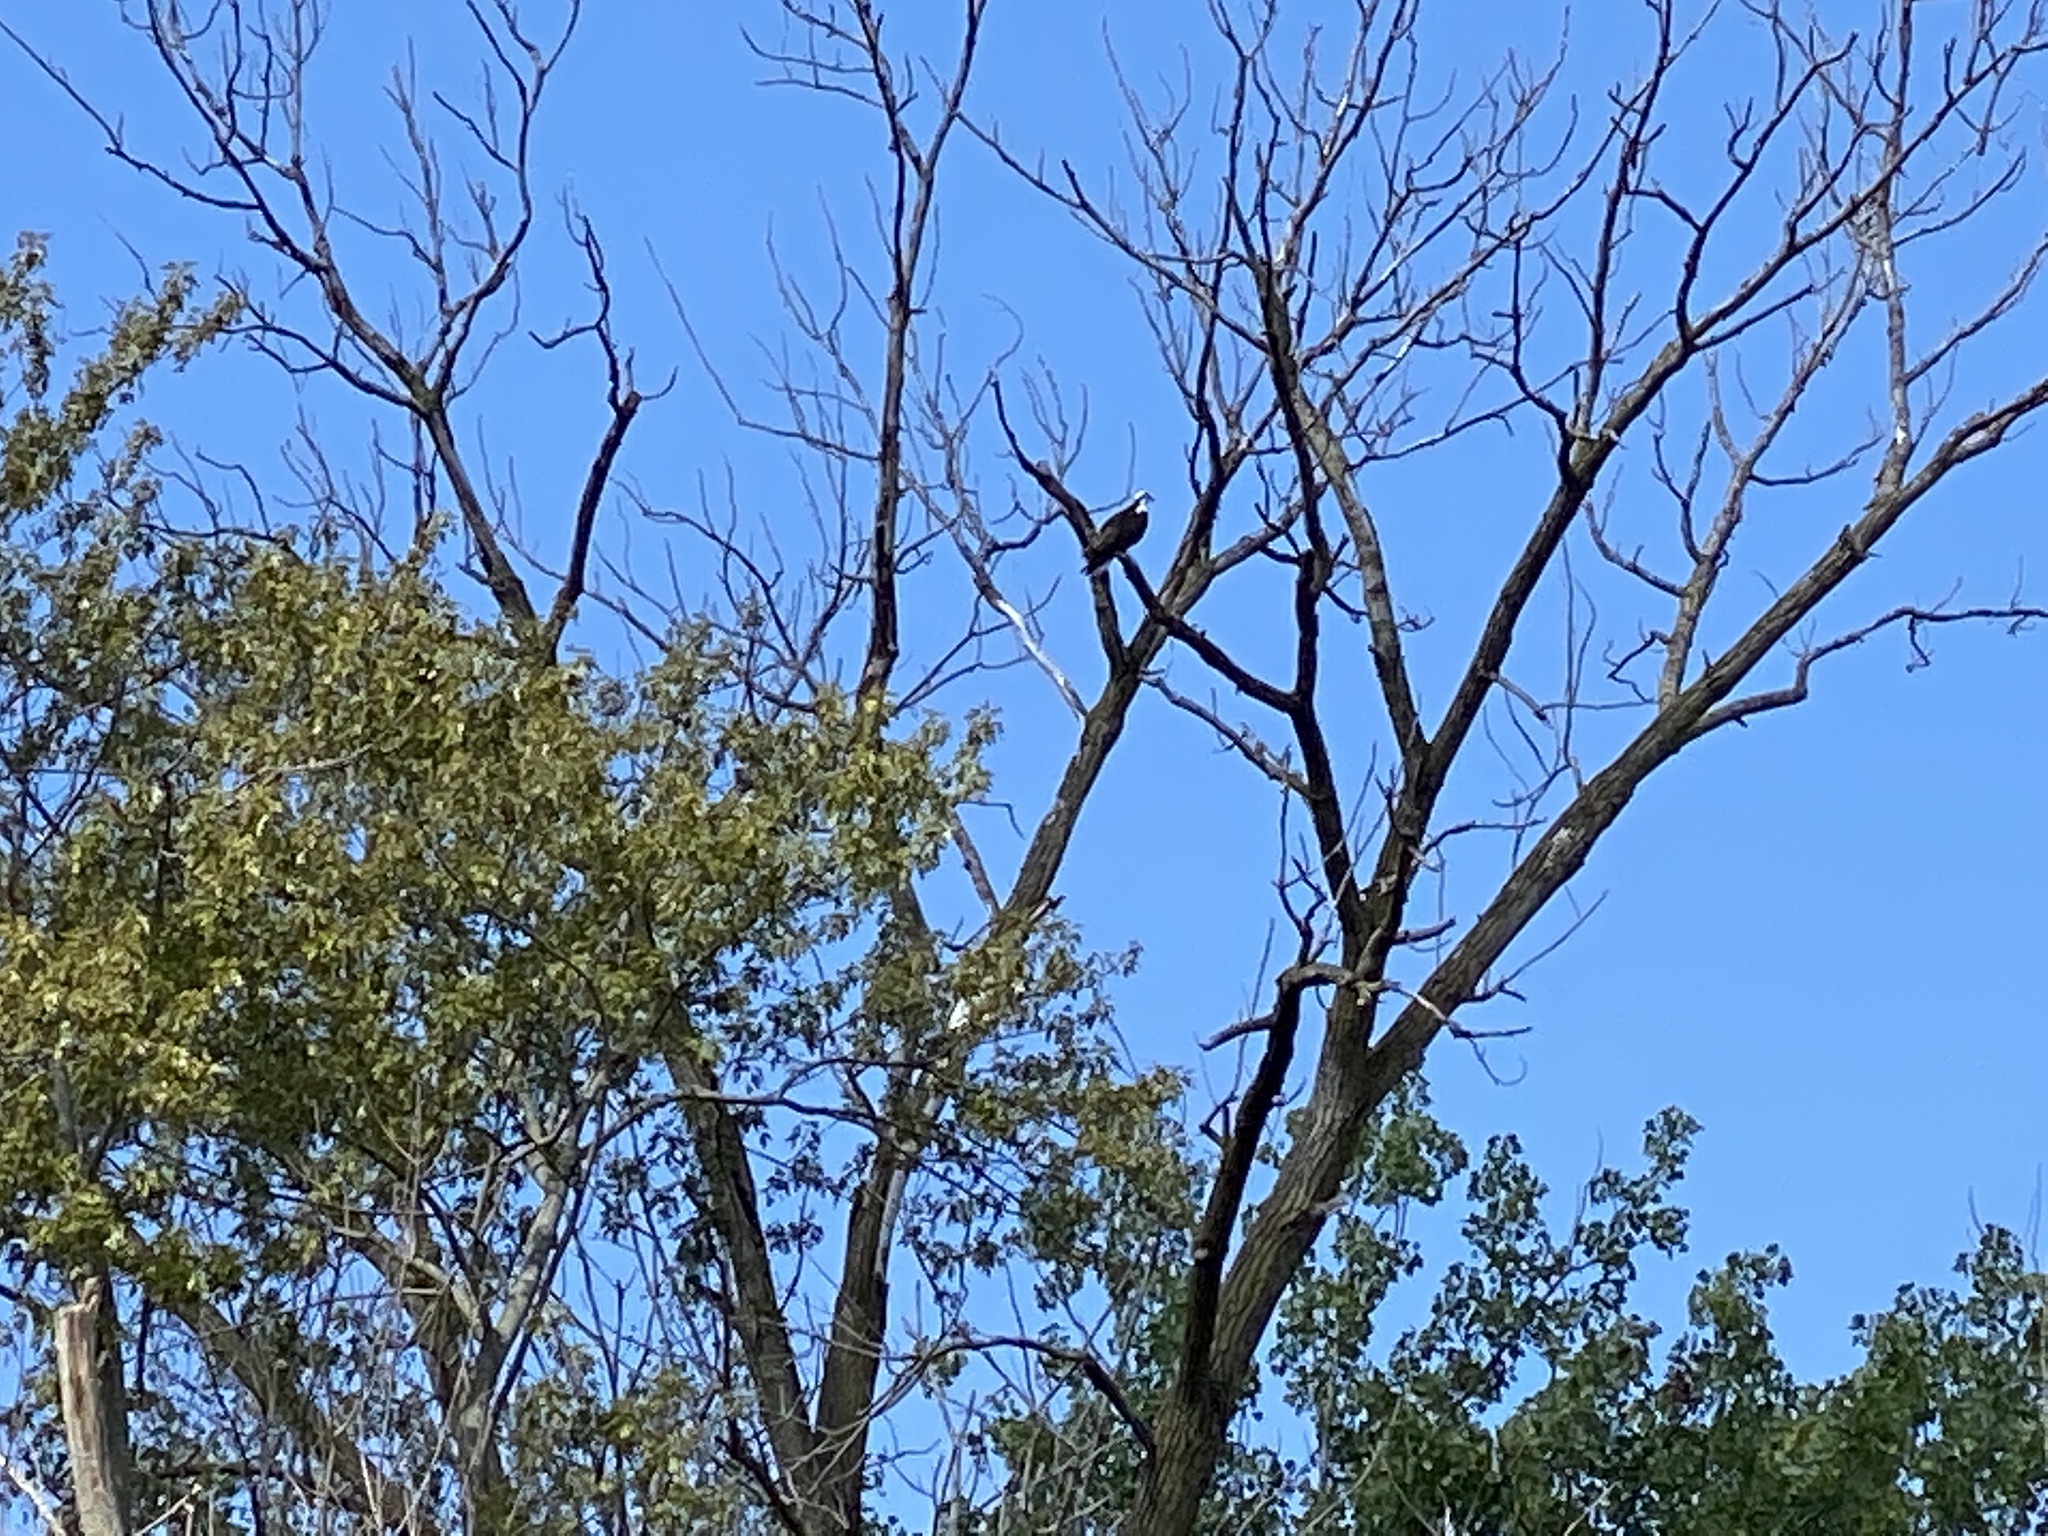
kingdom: Animalia
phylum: Chordata
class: Aves
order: Accipitriformes
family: Pandionidae
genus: Pandion
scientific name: Pandion haliaetus
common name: Osprey
